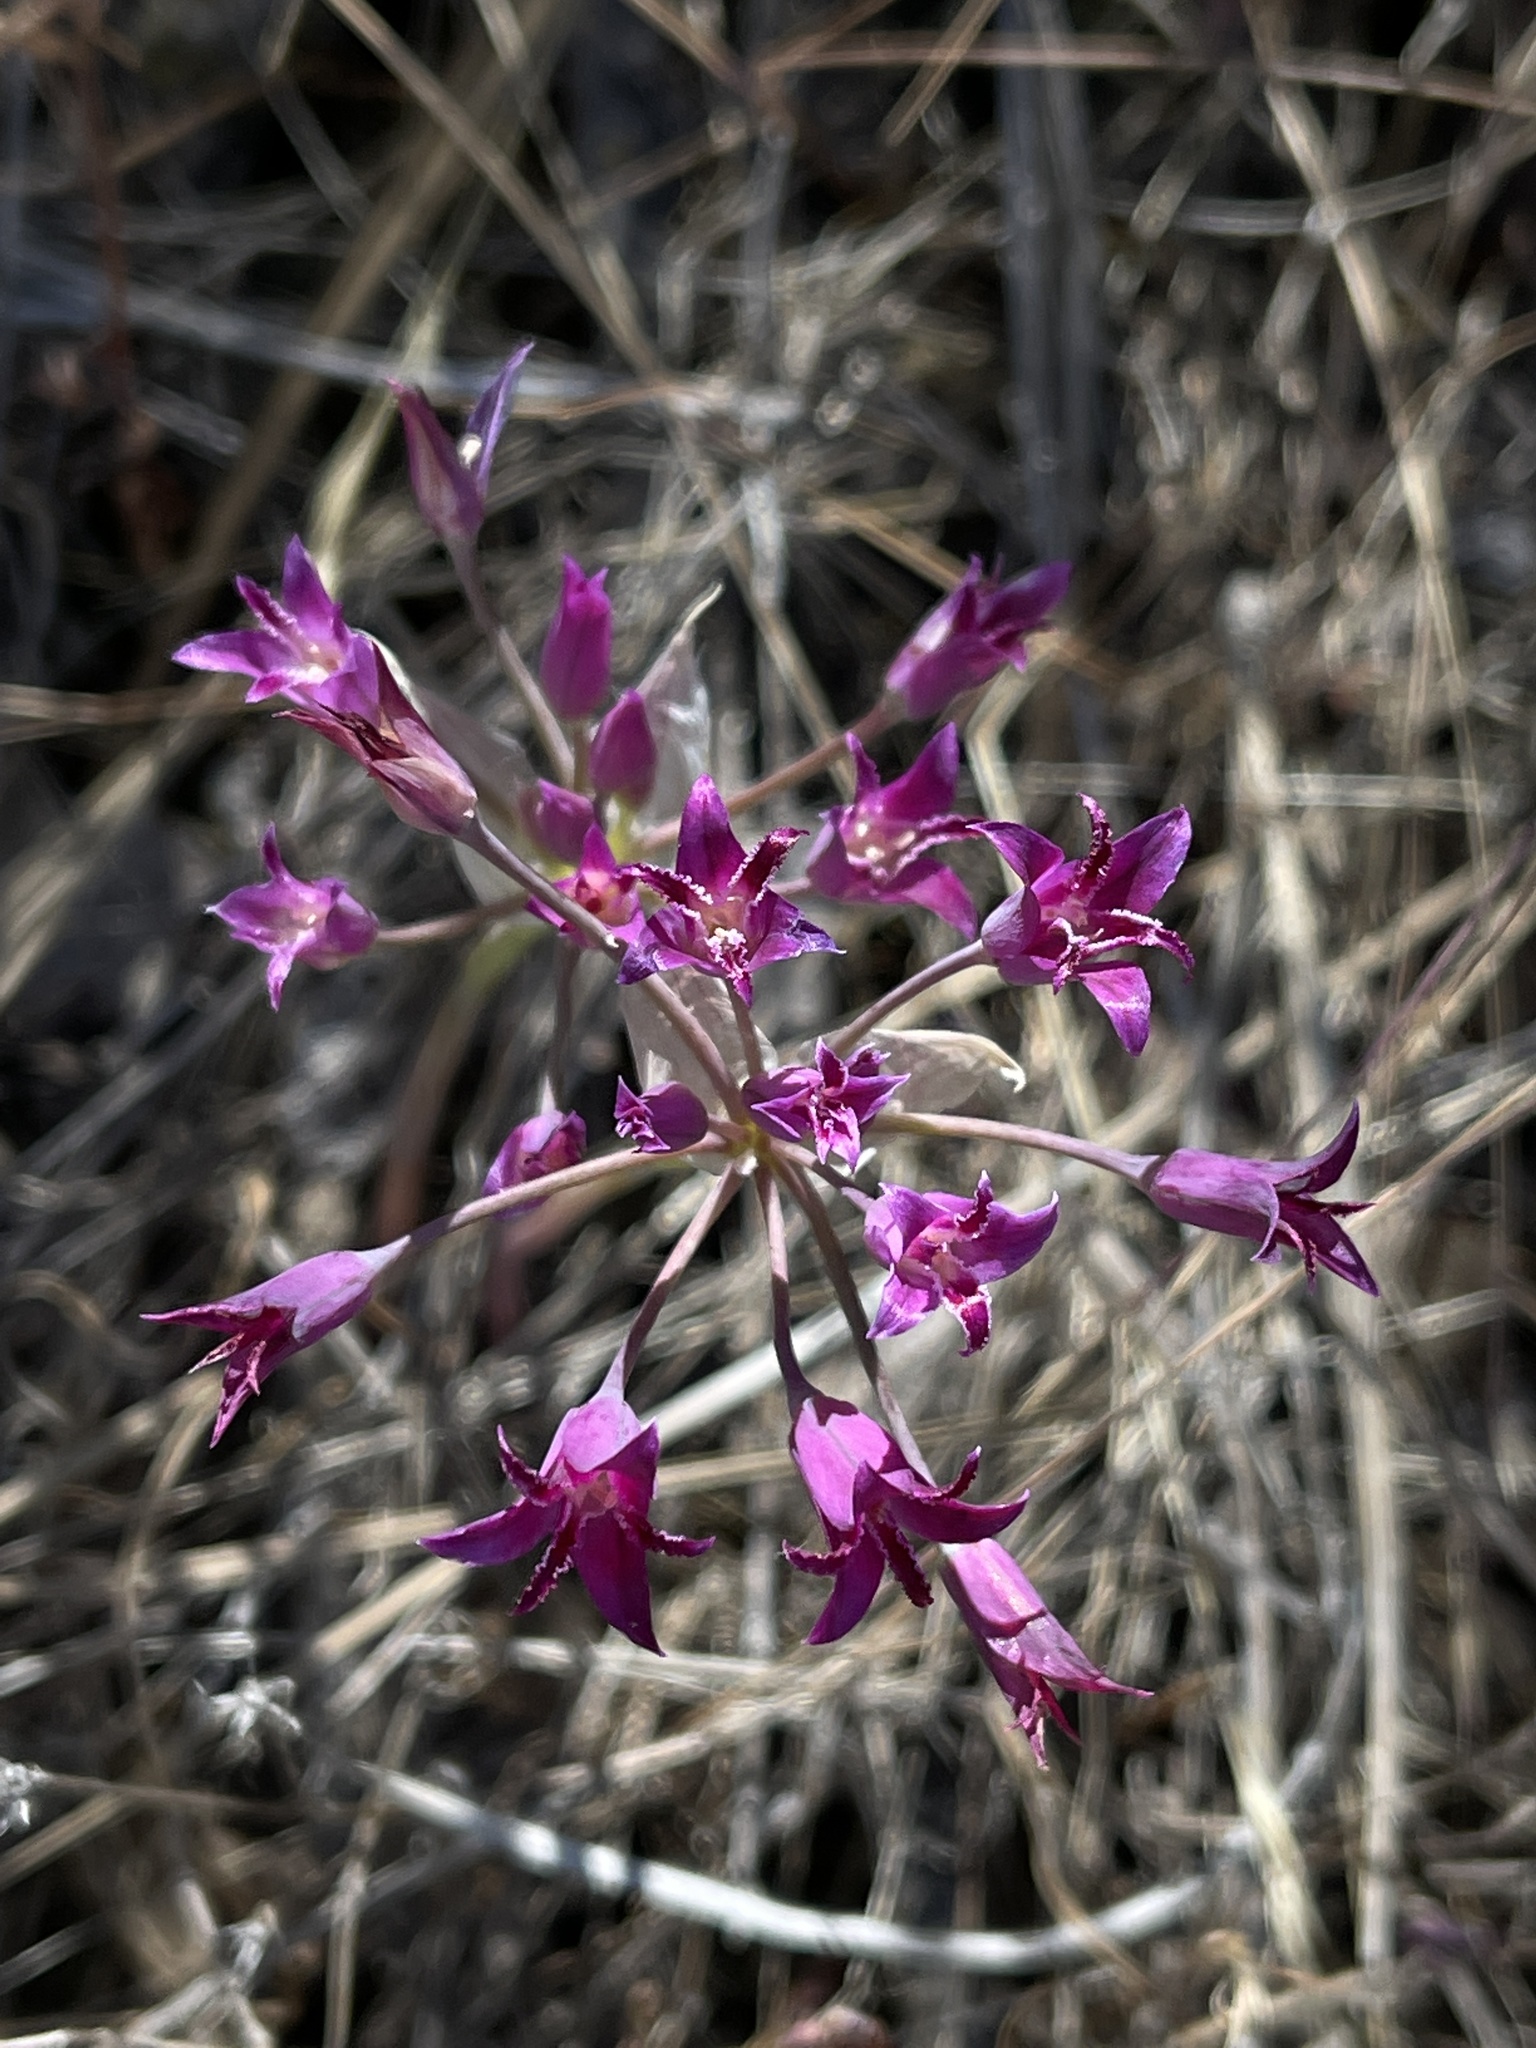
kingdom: Plantae
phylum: Tracheophyta
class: Liliopsida
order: Asparagales
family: Amaryllidaceae
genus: Allium
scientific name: Allium crispum
